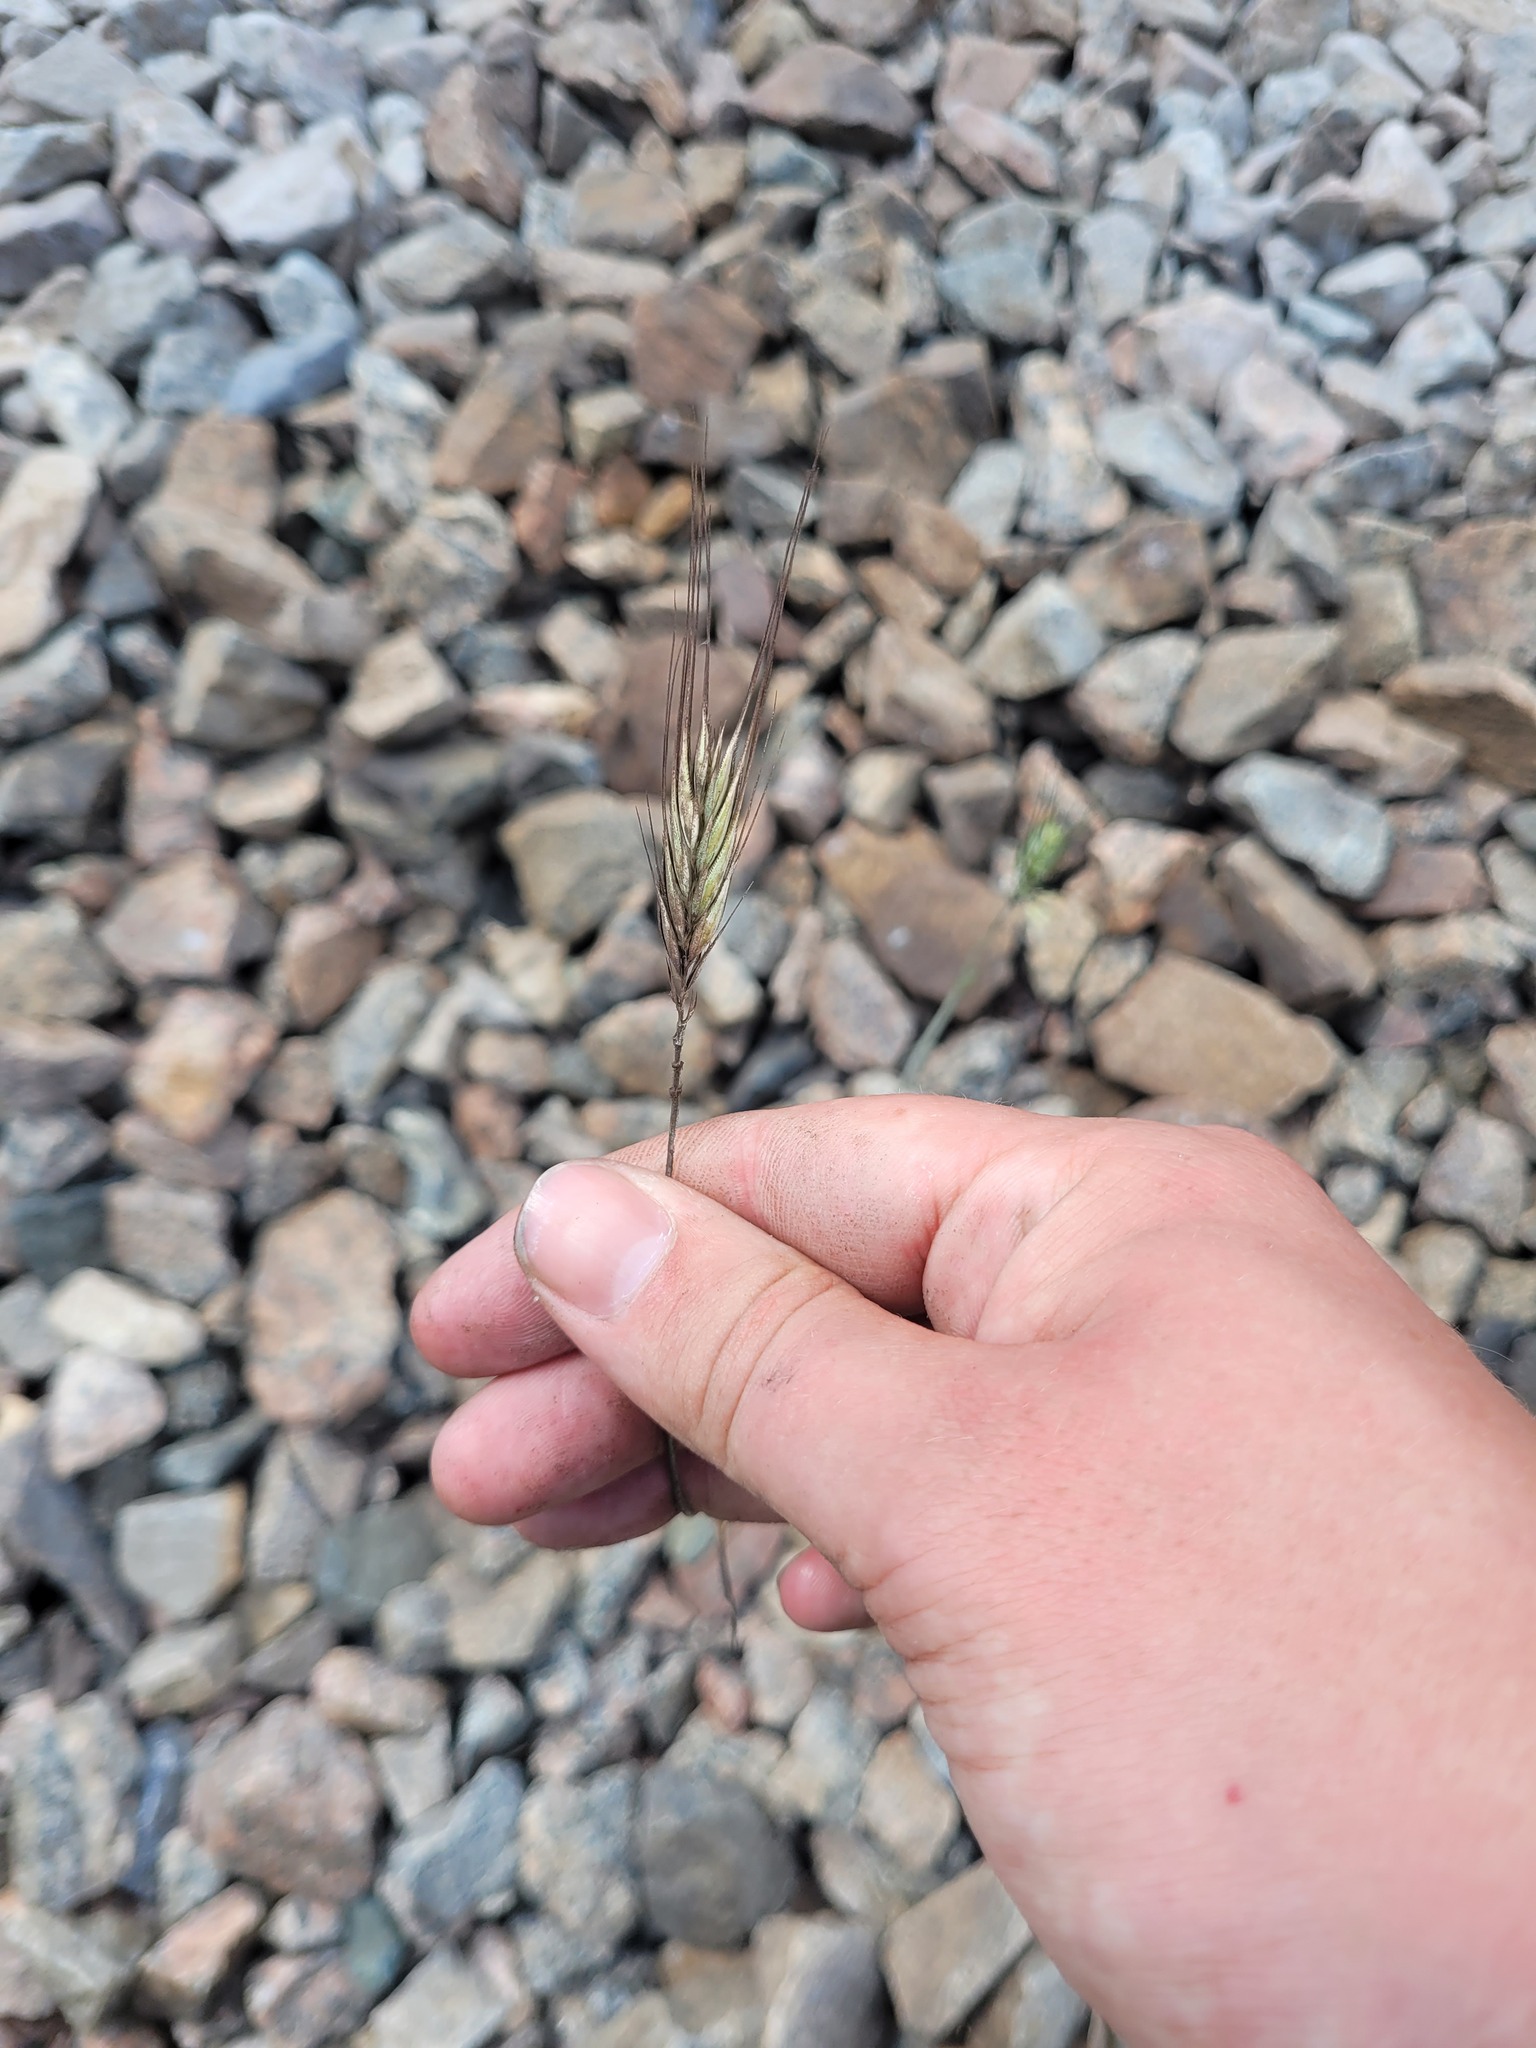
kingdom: Plantae
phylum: Tracheophyta
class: Liliopsida
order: Poales
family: Poaceae
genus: Secale
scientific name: Secale cereale
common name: Rye
